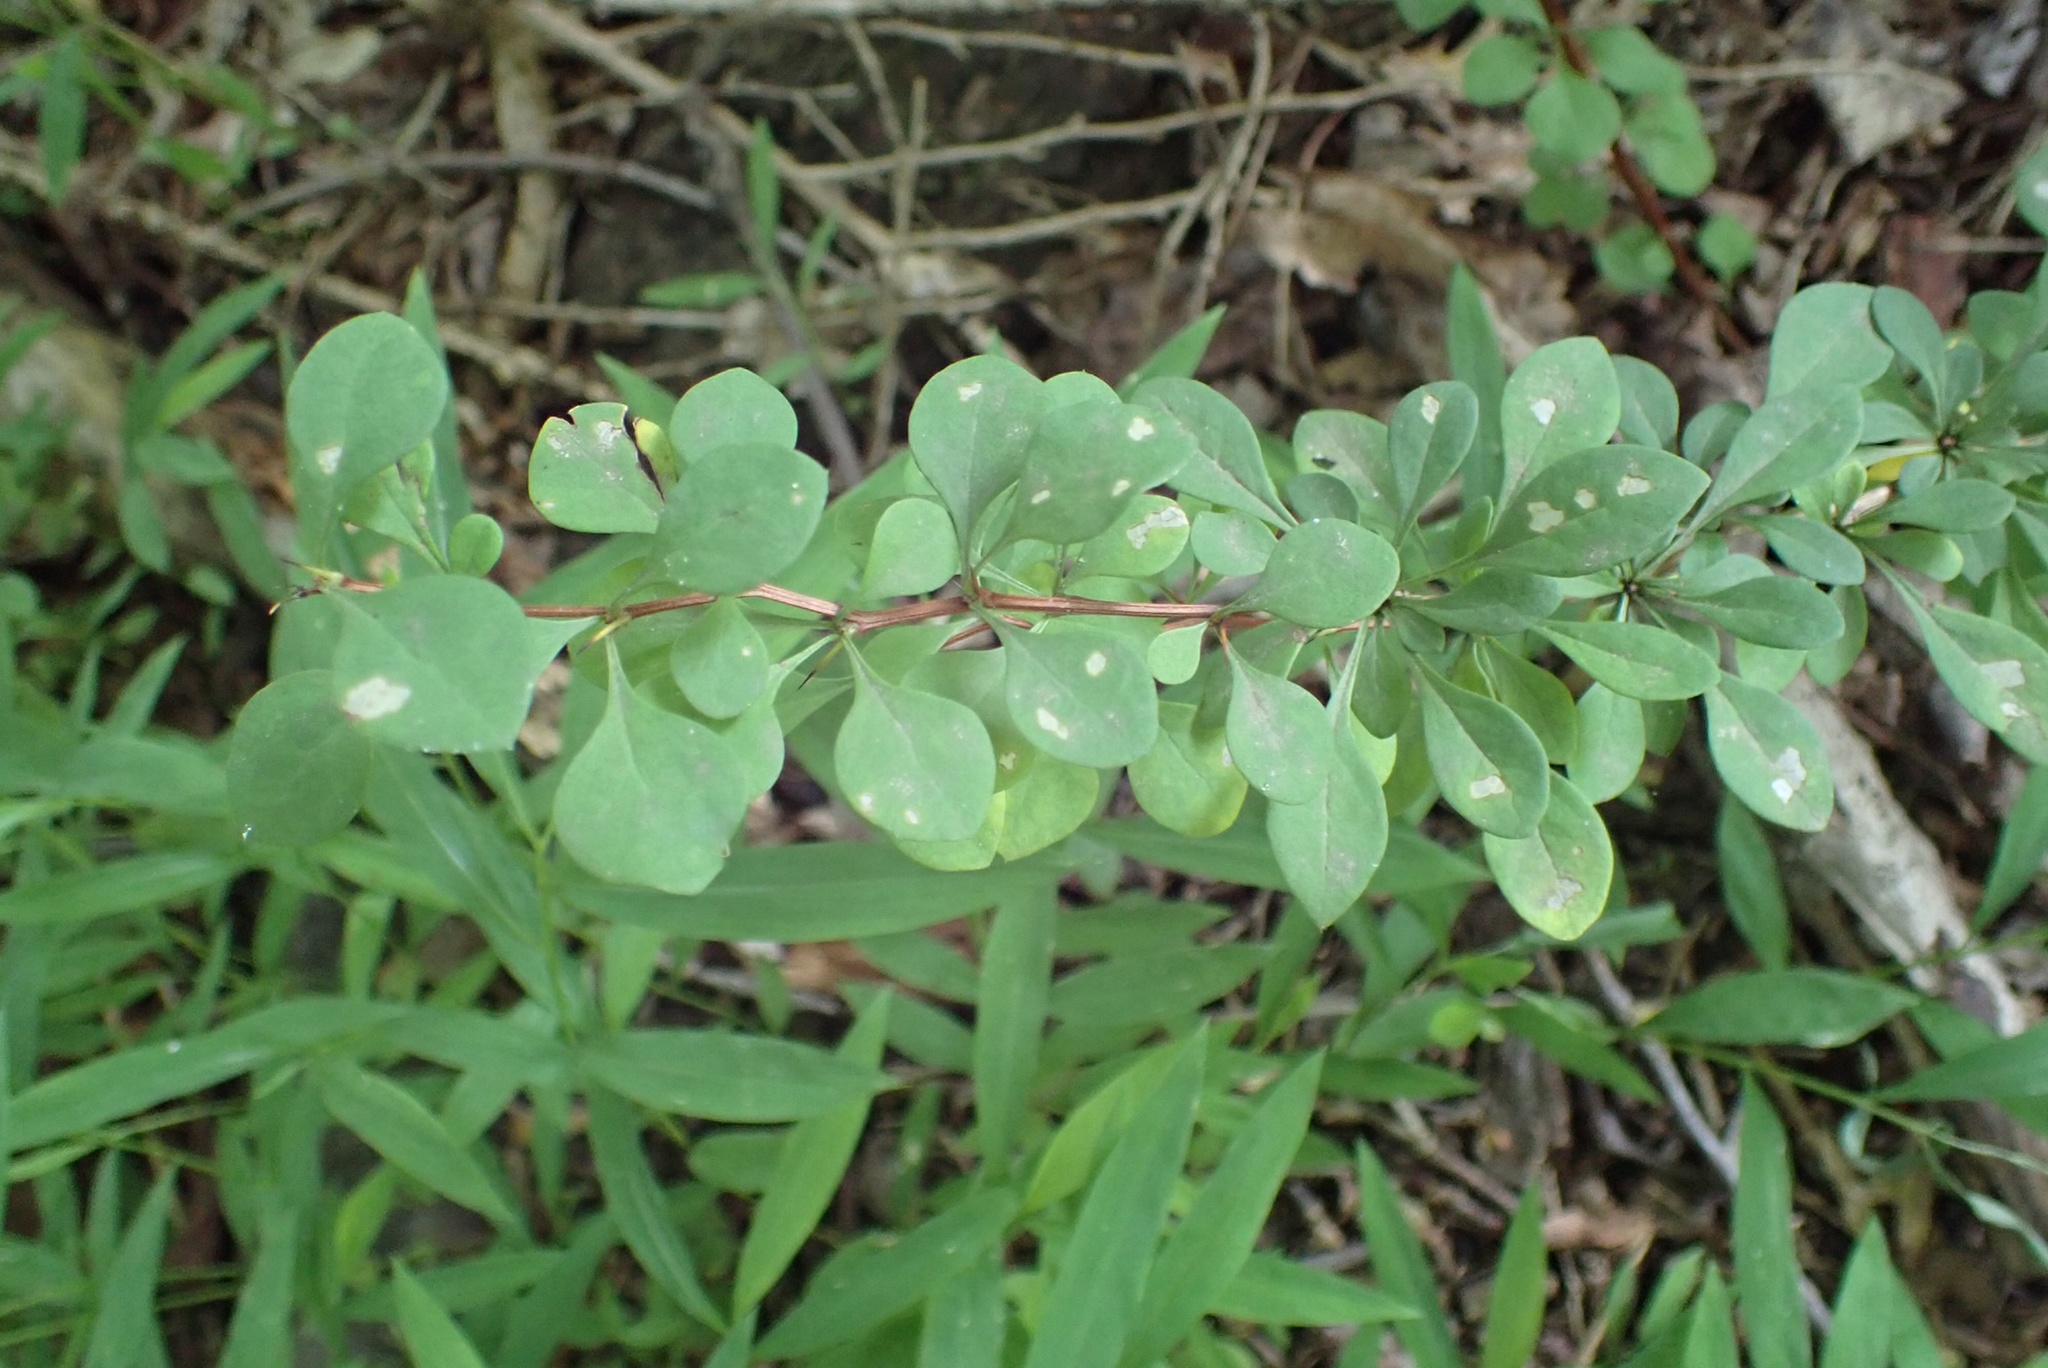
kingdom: Plantae
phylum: Tracheophyta
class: Magnoliopsida
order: Ranunculales
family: Berberidaceae
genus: Berberis
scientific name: Berberis thunbergii
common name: Japanese barberry
